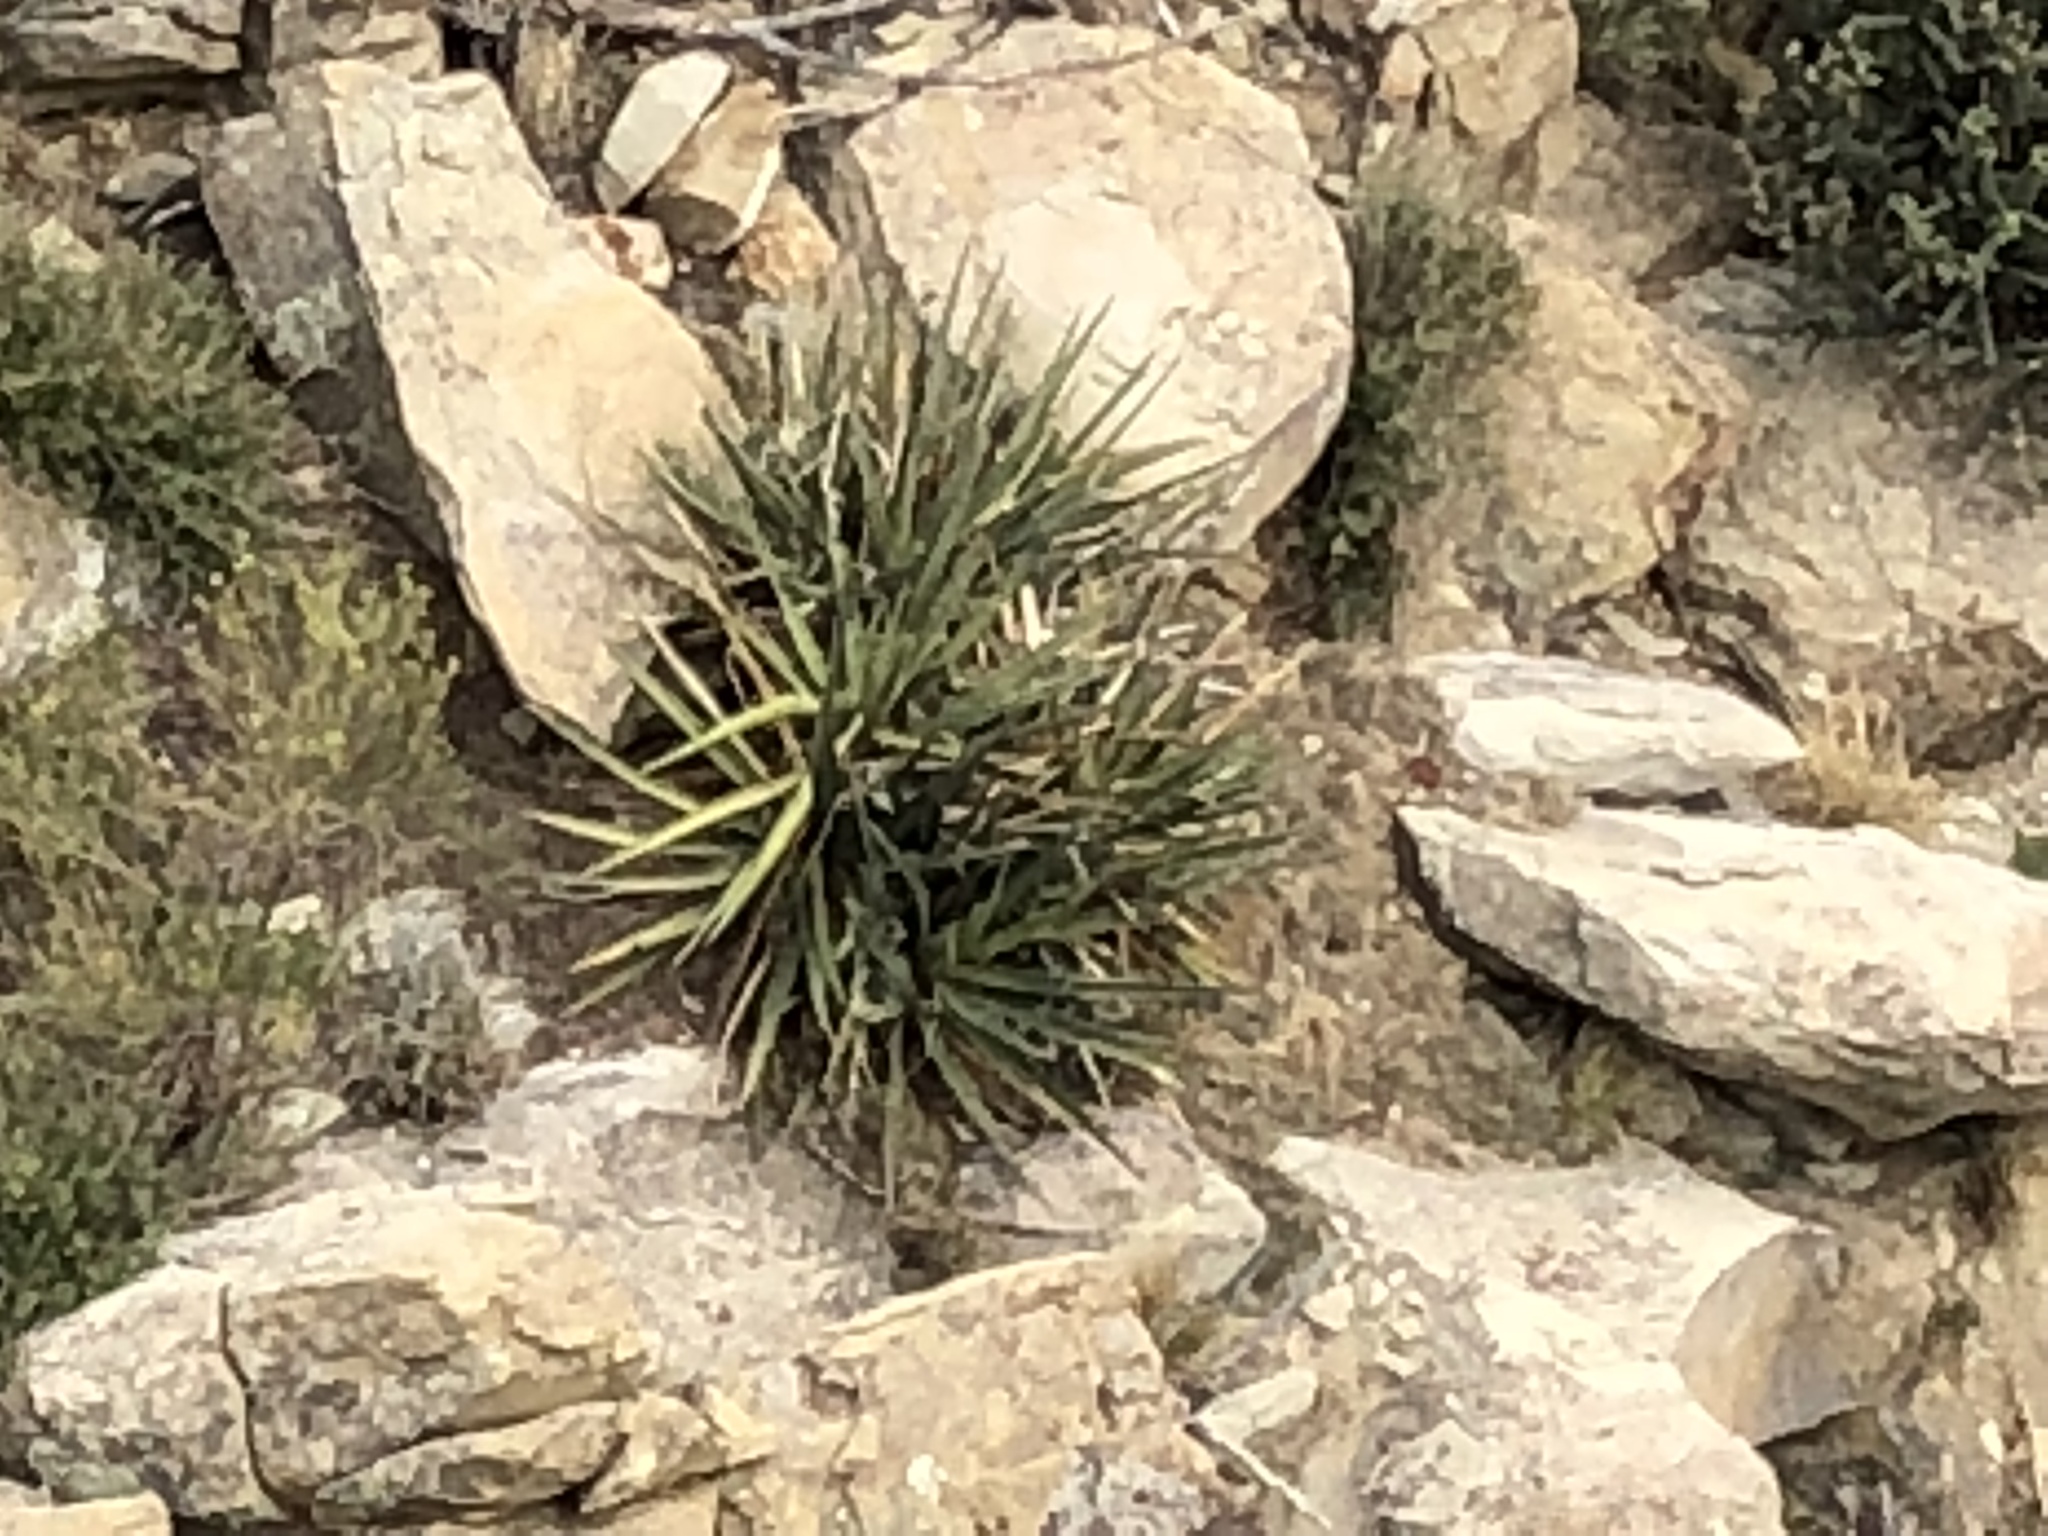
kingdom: Plantae
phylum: Tracheophyta
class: Liliopsida
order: Asparagales
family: Asparagaceae
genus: Yucca
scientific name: Yucca baccata
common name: Banana yucca
